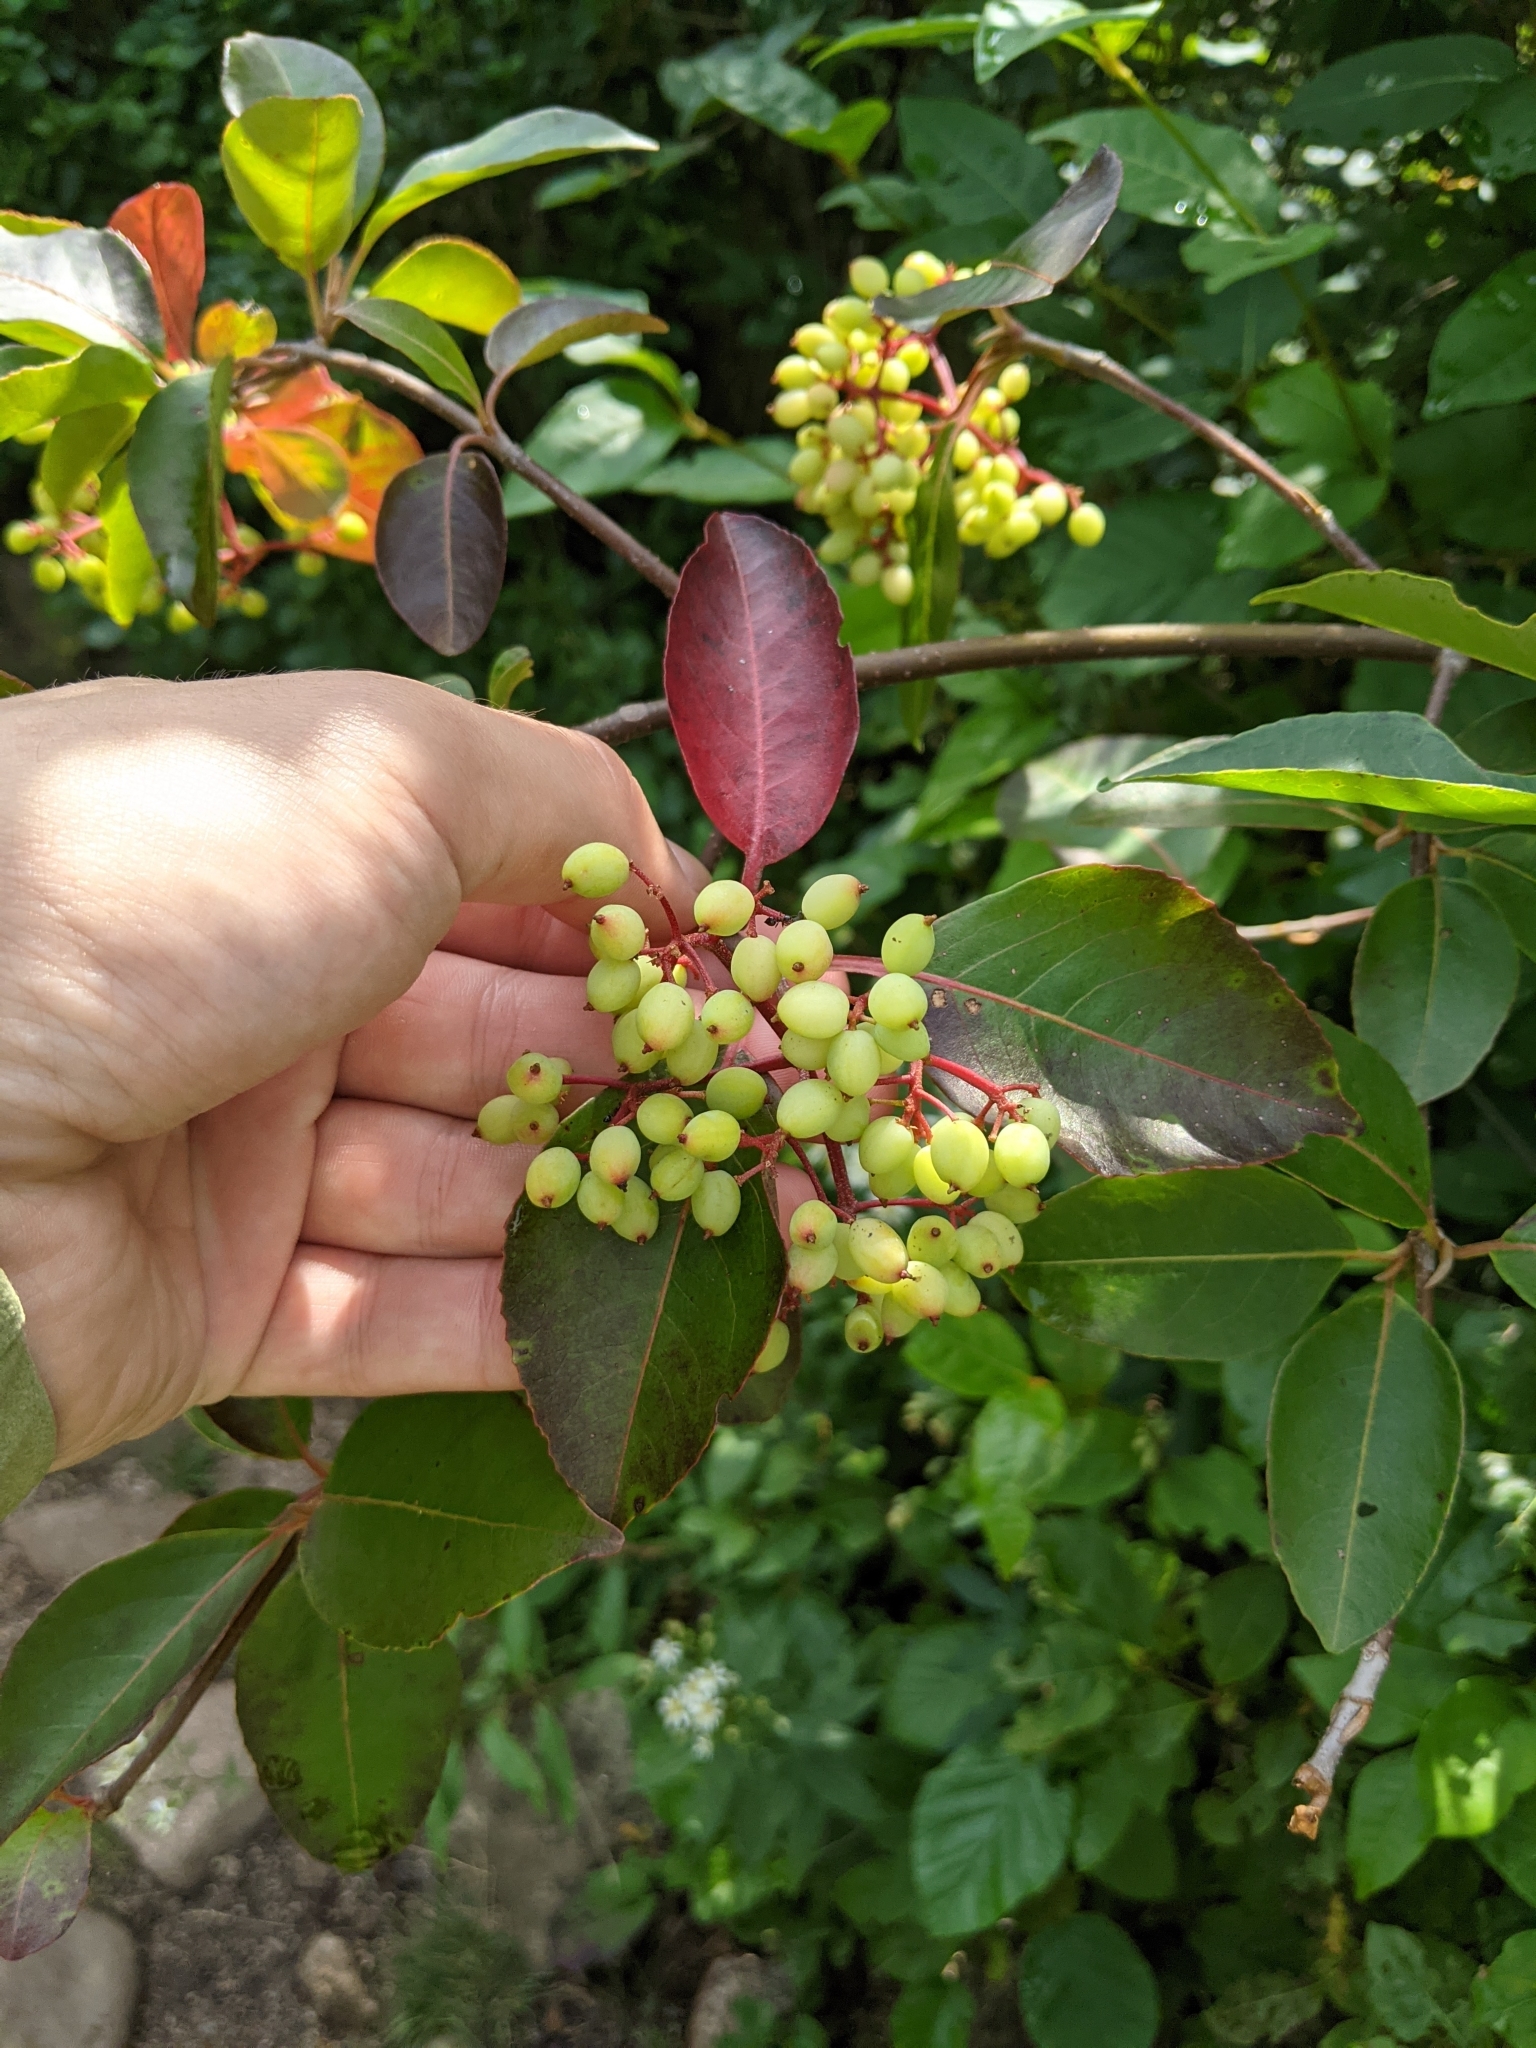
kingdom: Plantae
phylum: Tracheophyta
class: Magnoliopsida
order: Dipsacales
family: Viburnaceae
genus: Viburnum
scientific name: Viburnum cassinoides
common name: Swamp haw
